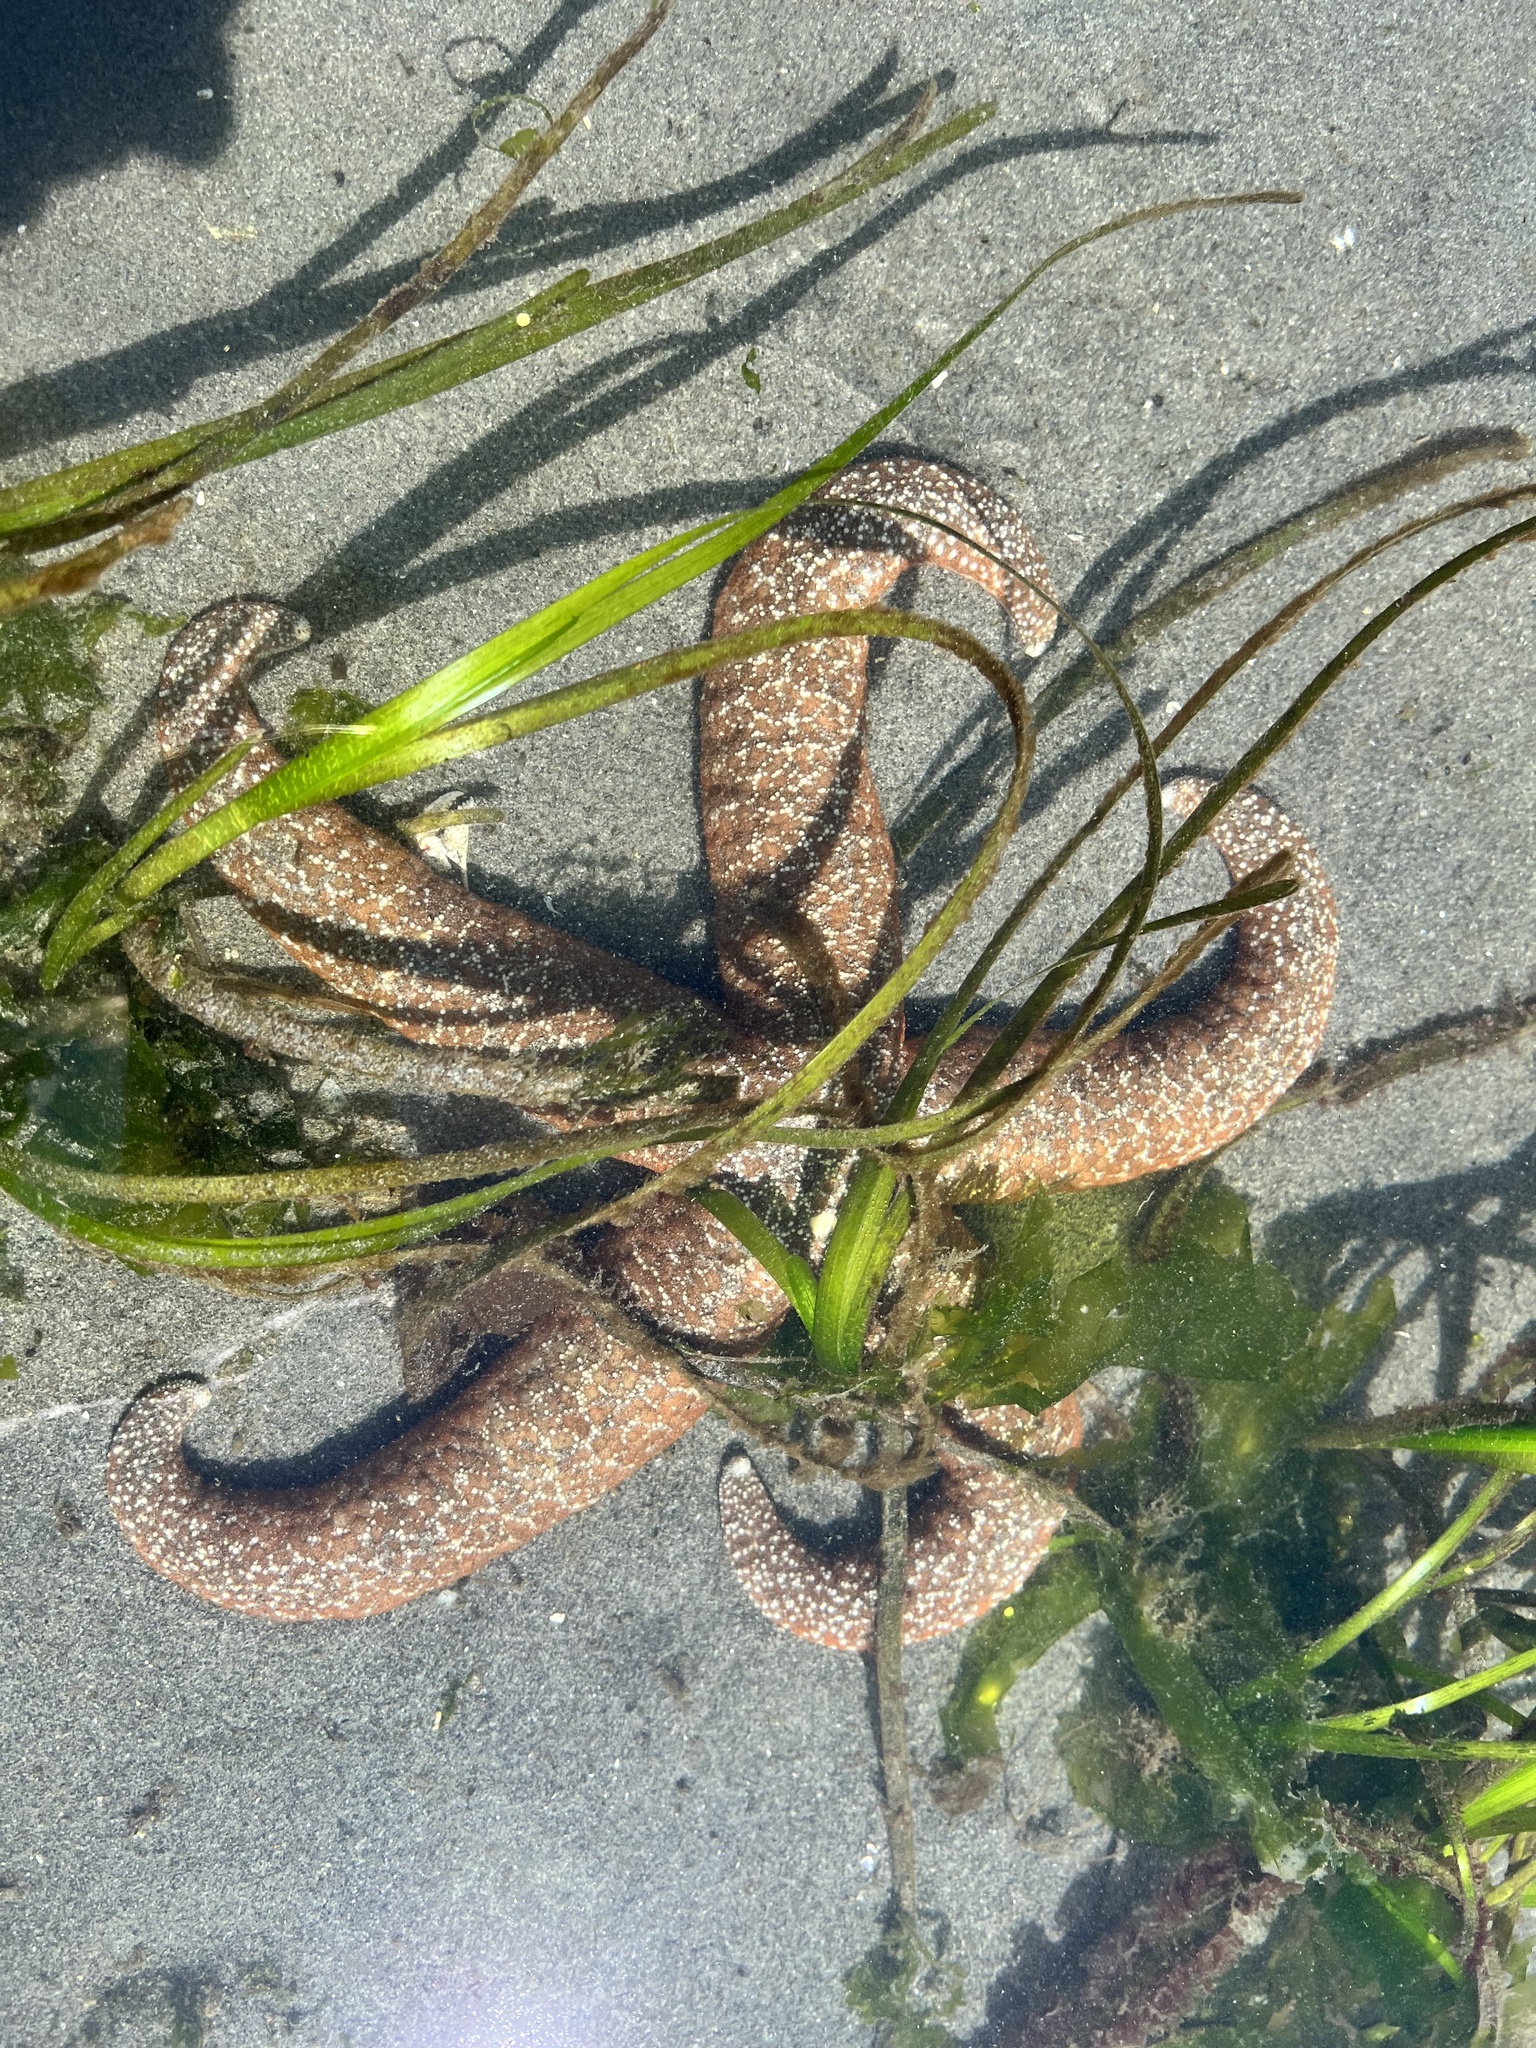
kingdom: Animalia
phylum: Echinodermata
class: Asteroidea
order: Forcipulatida
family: Asteriidae
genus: Evasterias
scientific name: Evasterias troschelii
